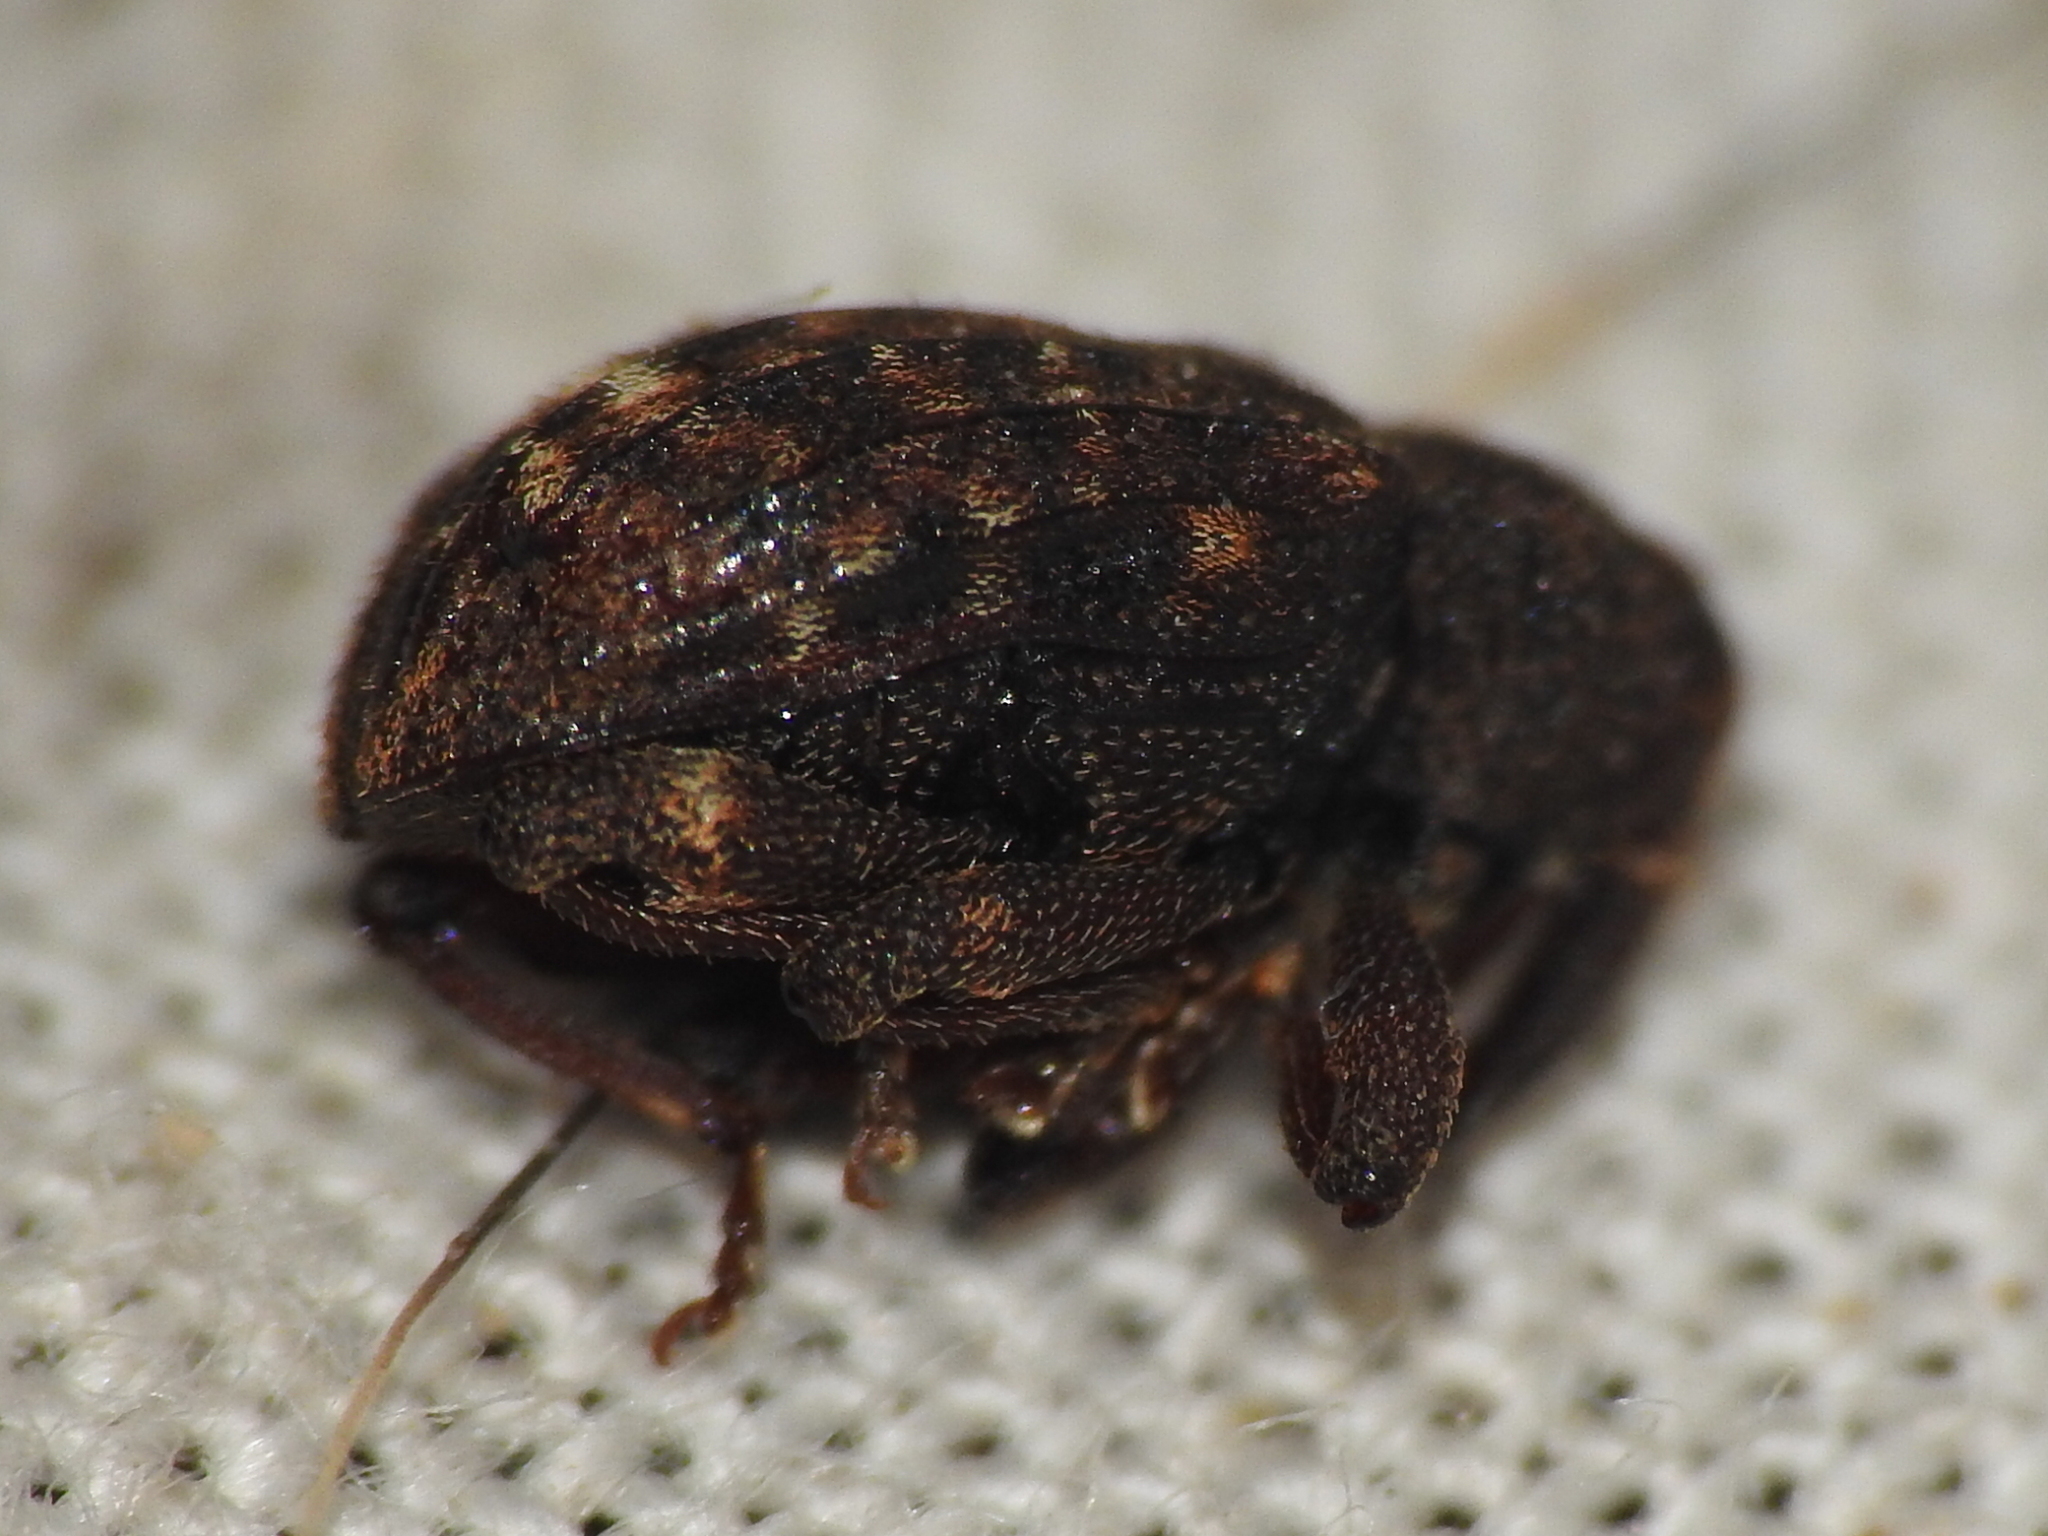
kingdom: Animalia
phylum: Arthropoda
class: Insecta
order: Coleoptera
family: Curculionidae
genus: Conotrachelus
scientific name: Conotrachelus posticatus
